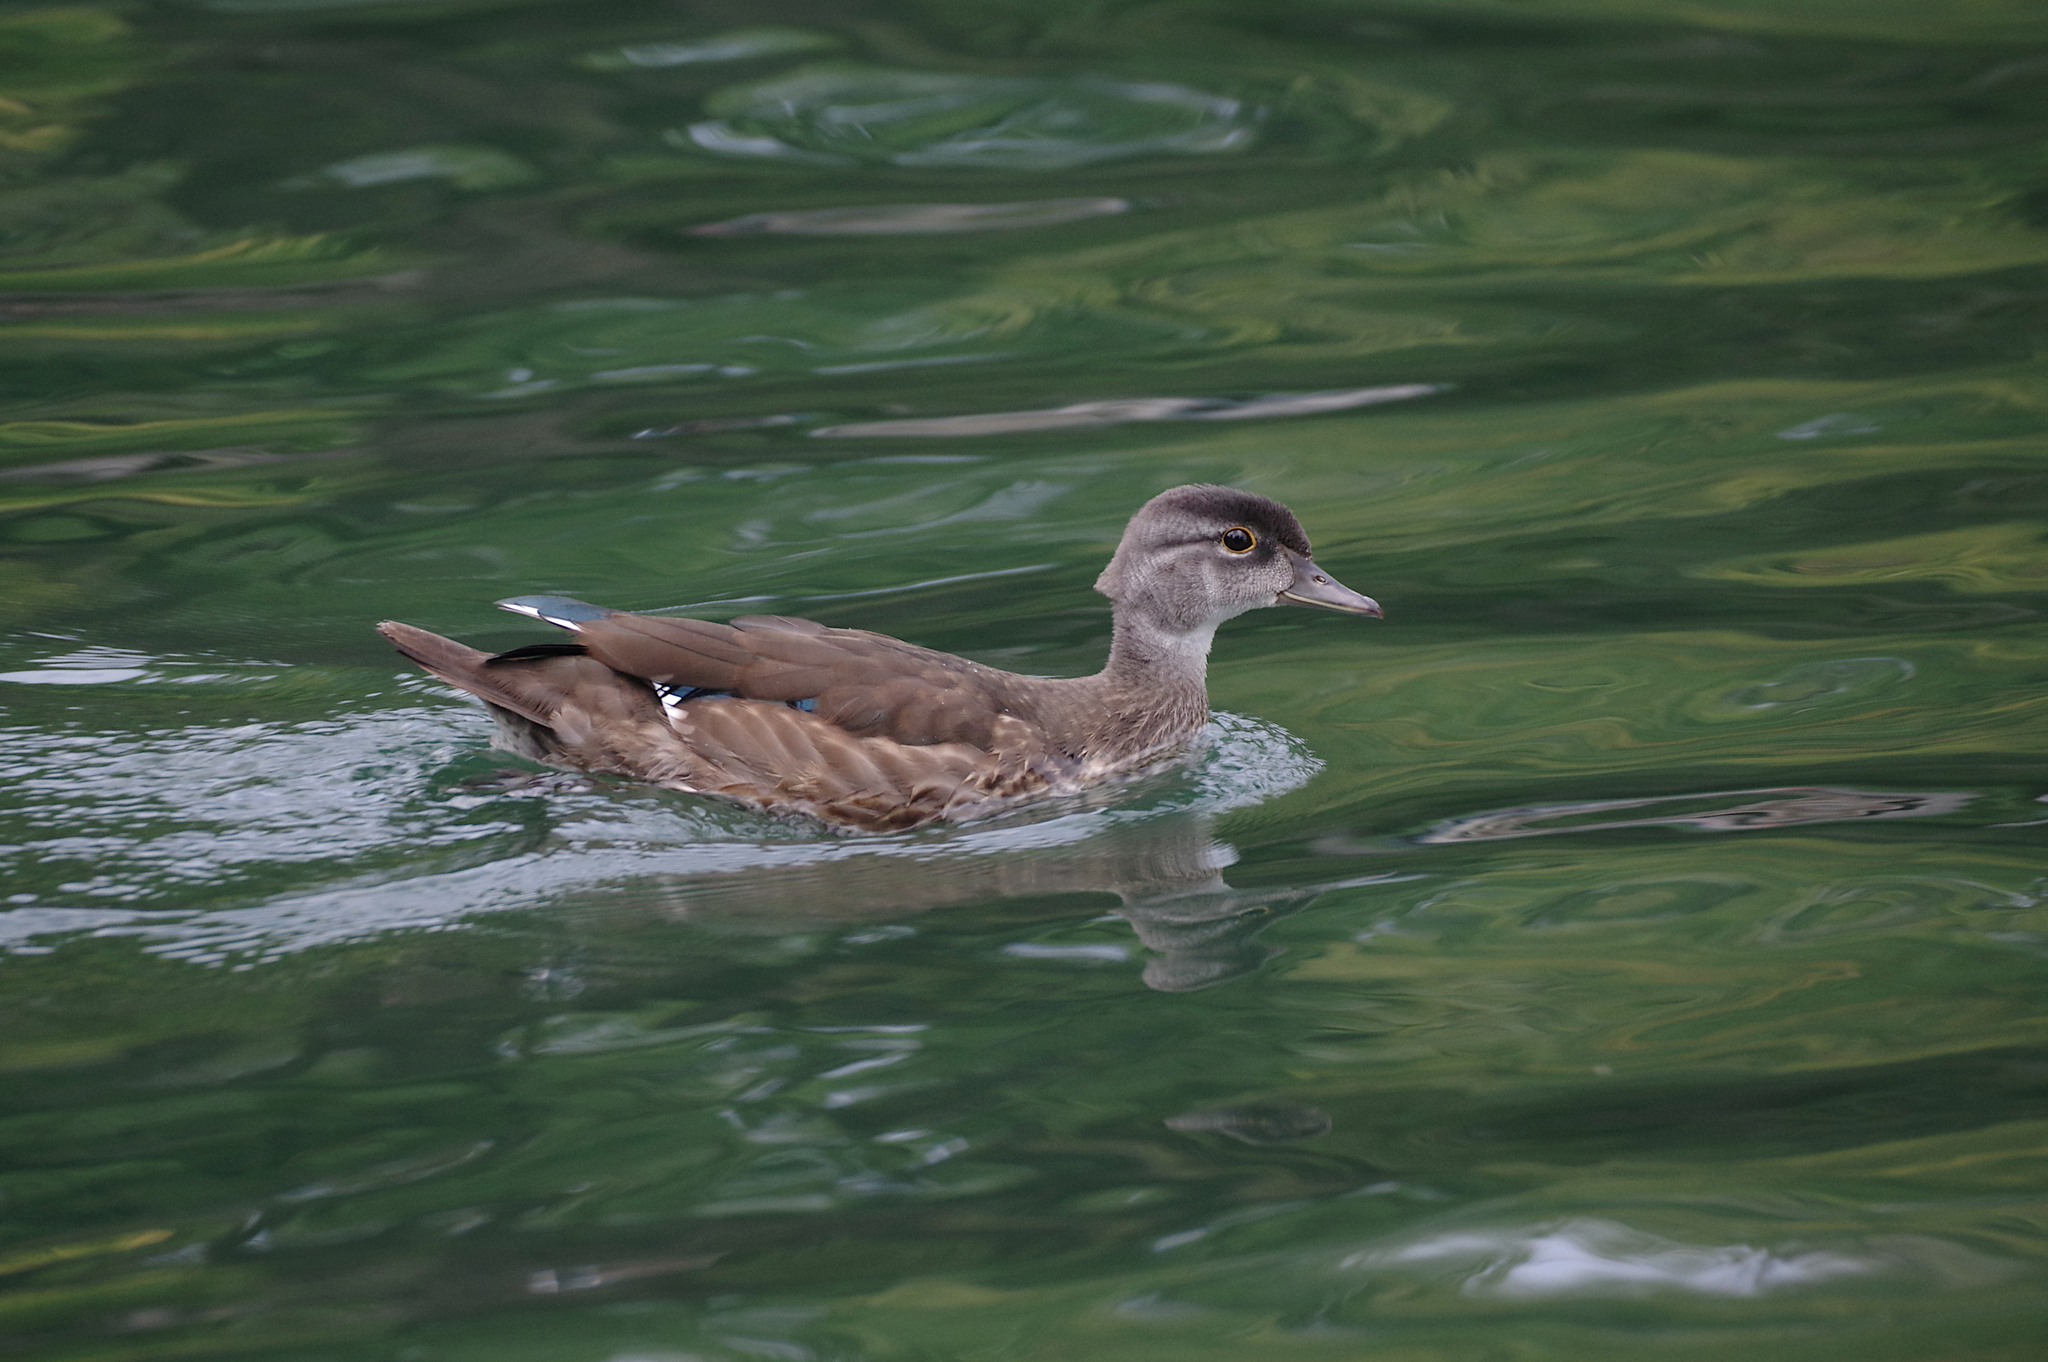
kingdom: Animalia
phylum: Chordata
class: Aves
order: Anseriformes
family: Anatidae
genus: Aix
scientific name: Aix sponsa
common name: Wood duck
